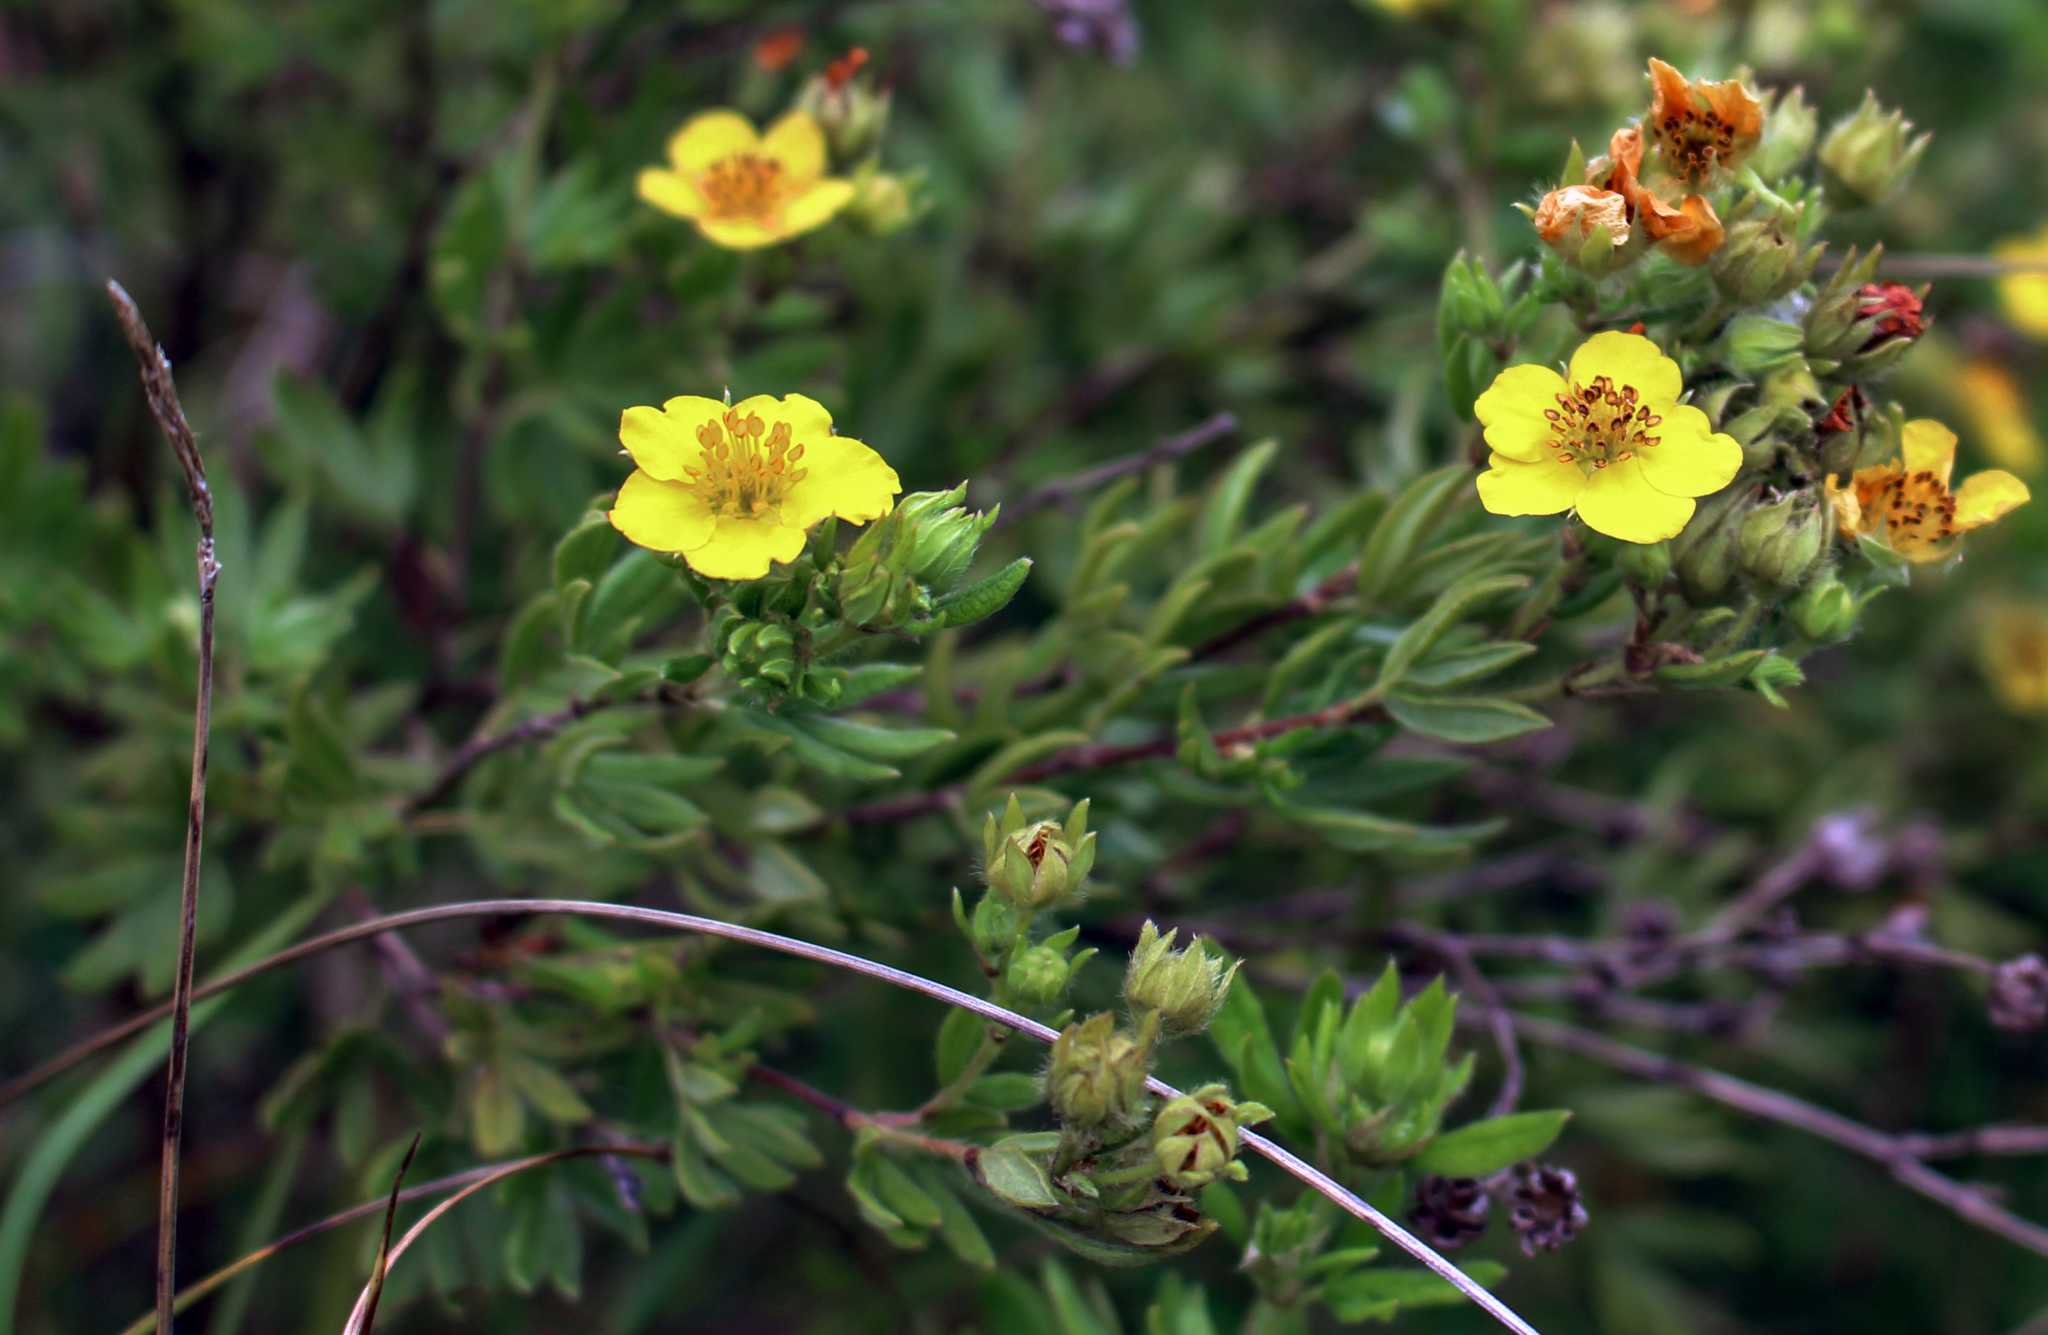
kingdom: Plantae
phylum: Tracheophyta
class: Magnoliopsida
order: Rosales
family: Rosaceae
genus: Dasiphora
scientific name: Dasiphora fruticosa
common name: Shrubby cinquefoil
